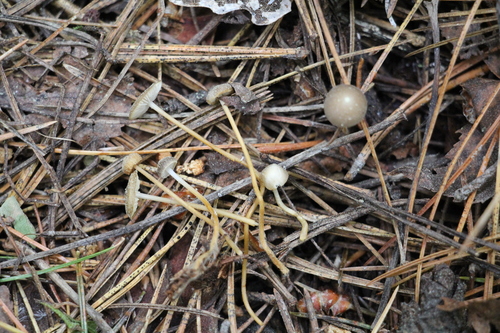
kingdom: Fungi
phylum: Basidiomycota
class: Agaricomycetes
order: Agaricales
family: Physalacriaceae
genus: Strobilurus
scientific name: Strobilurus stephanocystis
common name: Russian conecap
